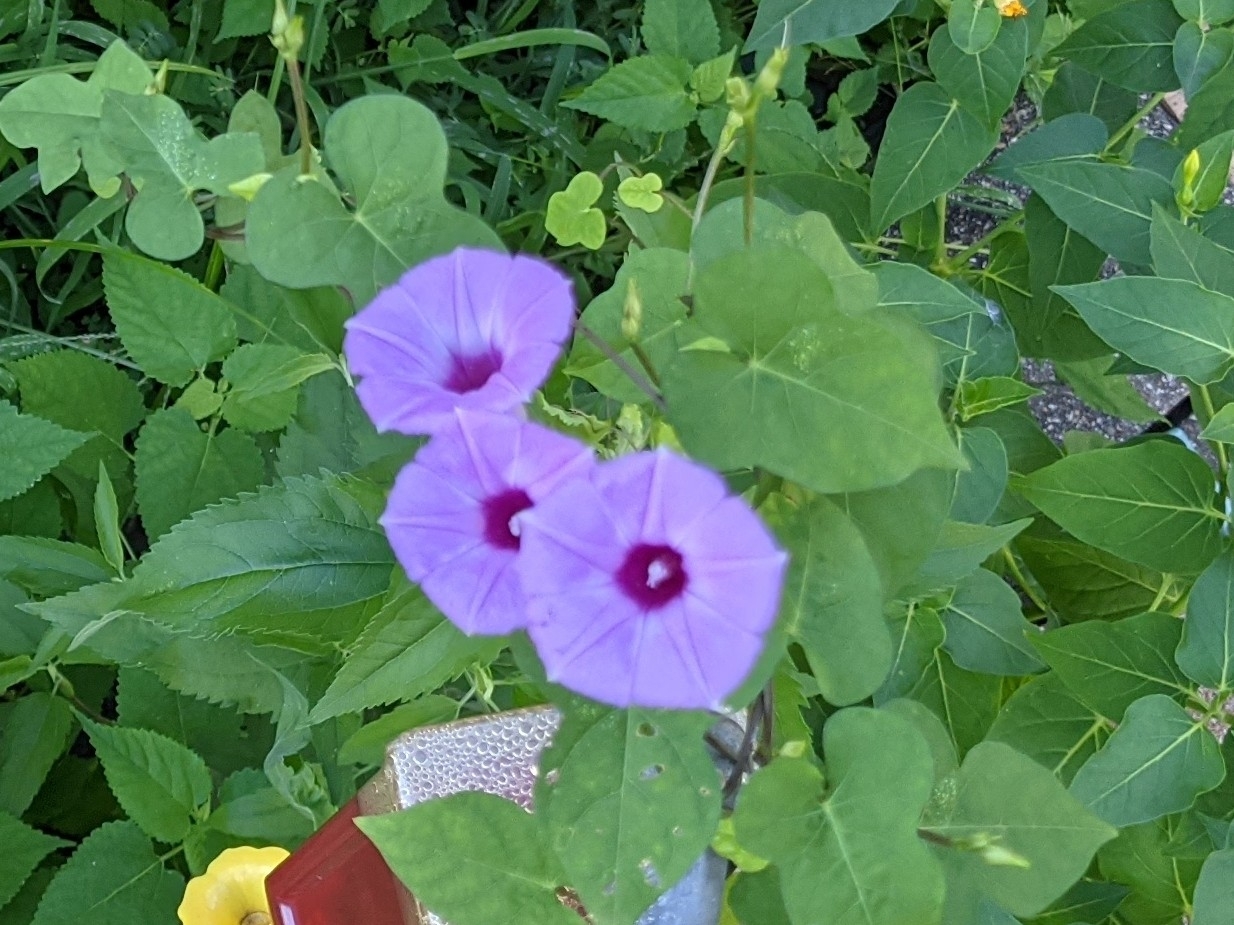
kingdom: Plantae
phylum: Tracheophyta
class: Magnoliopsida
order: Solanales
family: Convolvulaceae
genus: Ipomoea
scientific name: Ipomoea cordatotriloba
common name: Cotton morning glory
